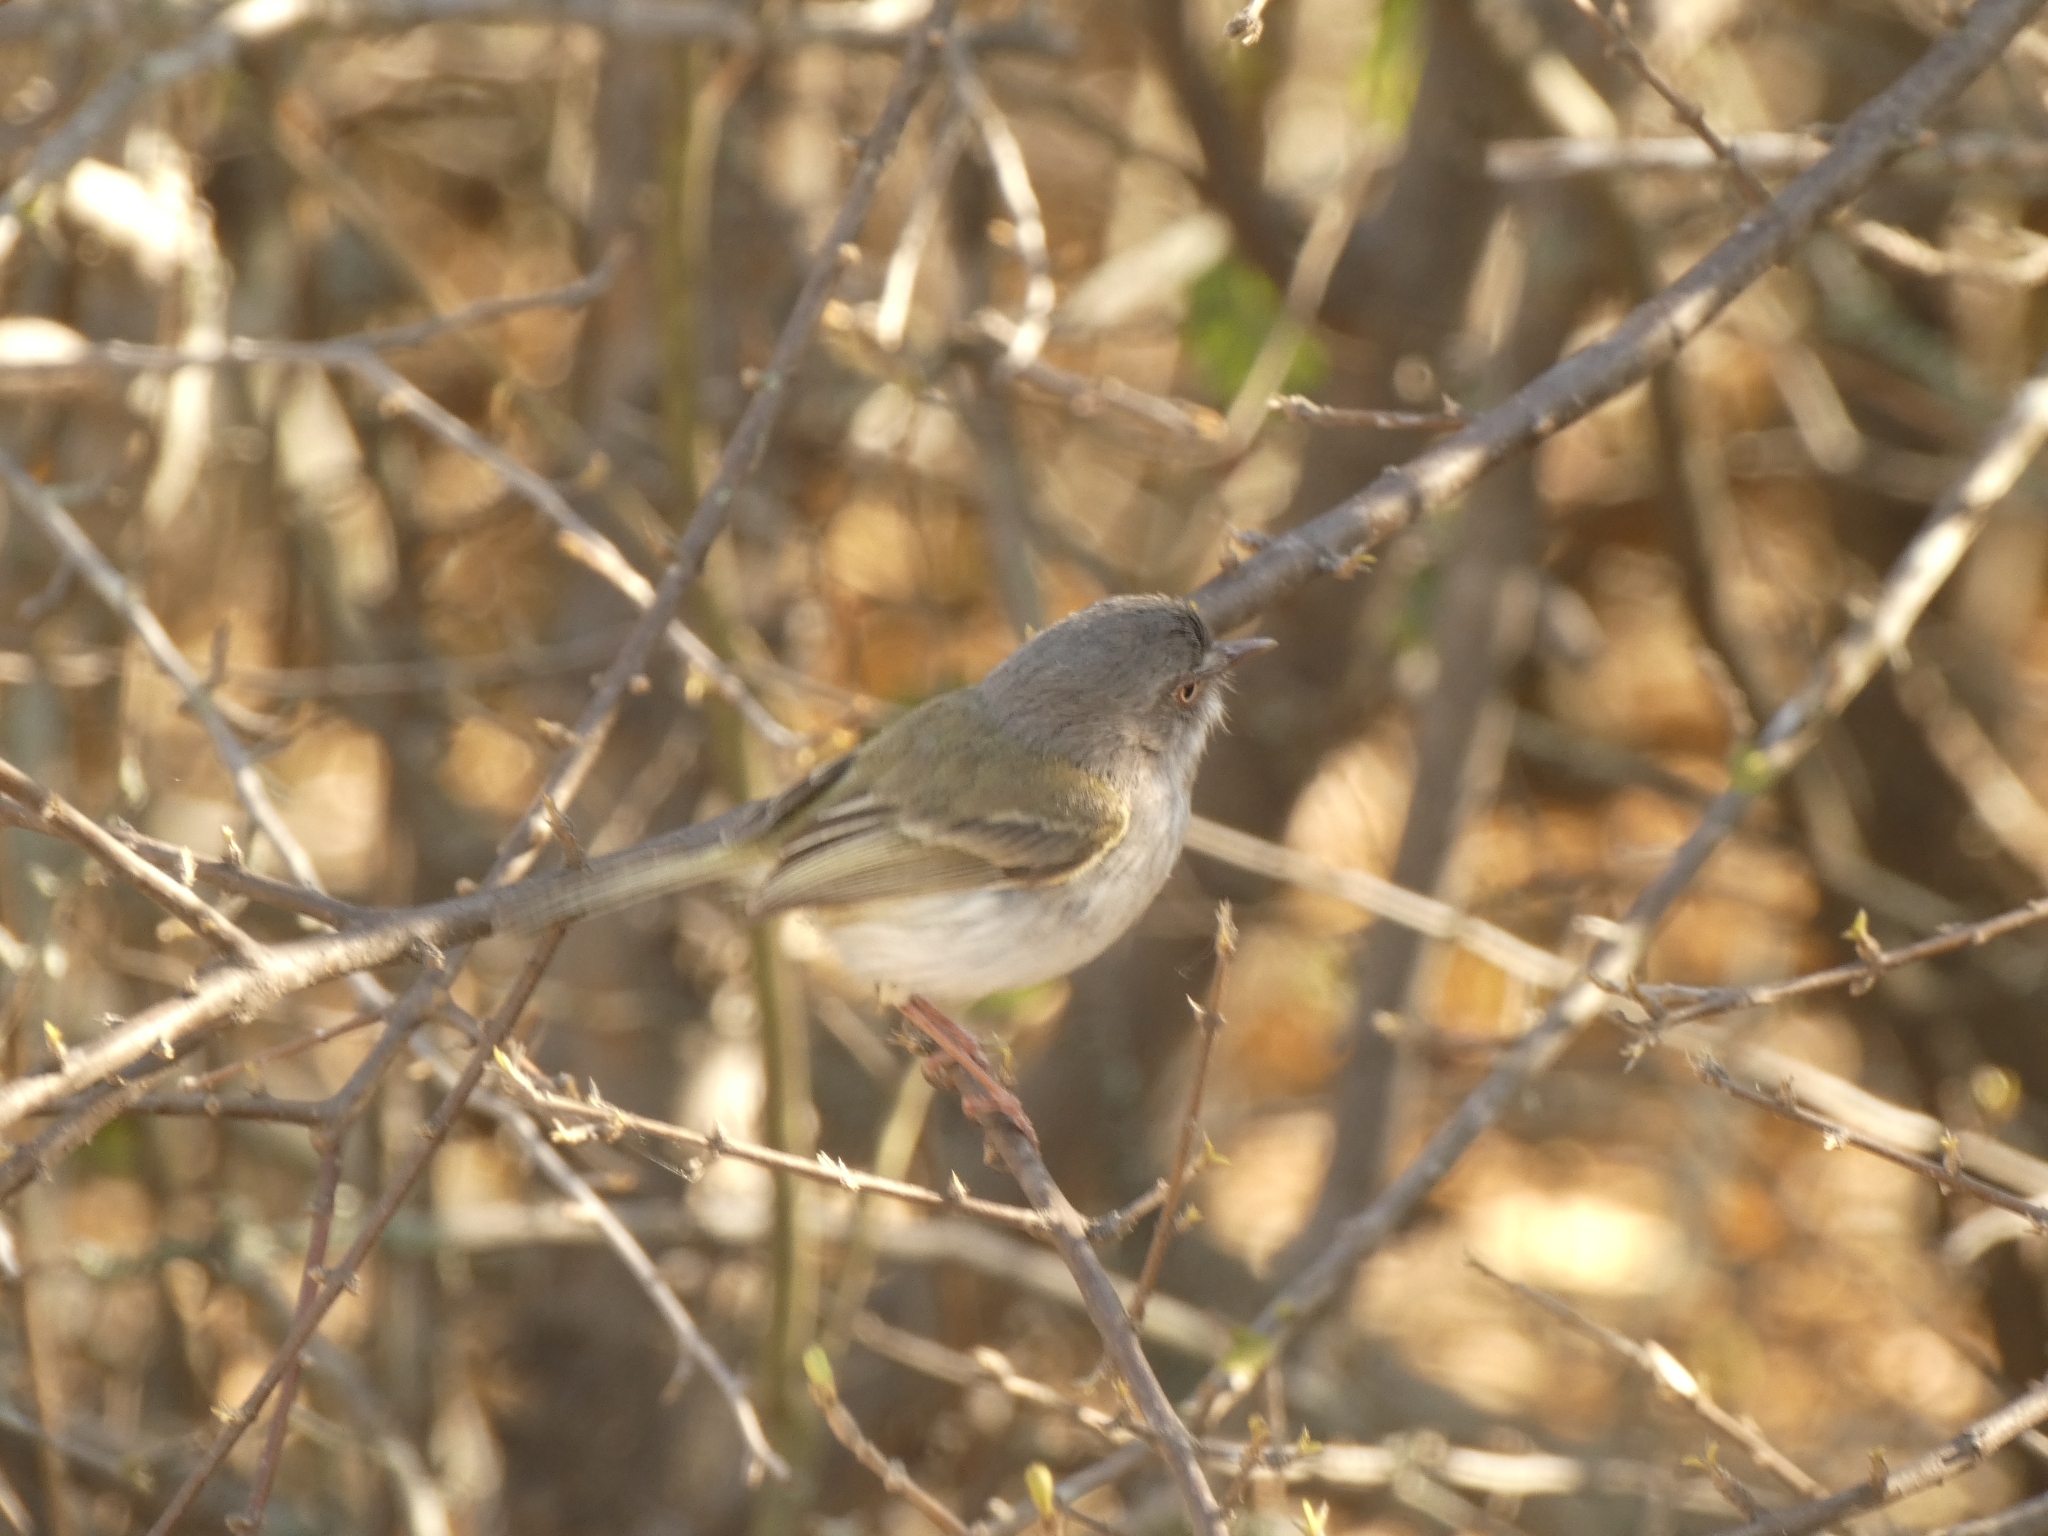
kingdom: Animalia
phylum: Chordata
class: Aves
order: Passeriformes
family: Tyrannidae
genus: Hemitriccus
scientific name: Hemitriccus margaritaceiventer
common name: Pearly-vented tody-tyrant
